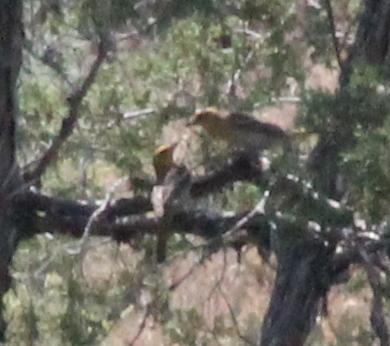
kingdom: Animalia
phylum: Chordata
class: Aves
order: Passeriformes
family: Icteridae
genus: Icterus
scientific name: Icterus bullockii
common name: Bullock's oriole
